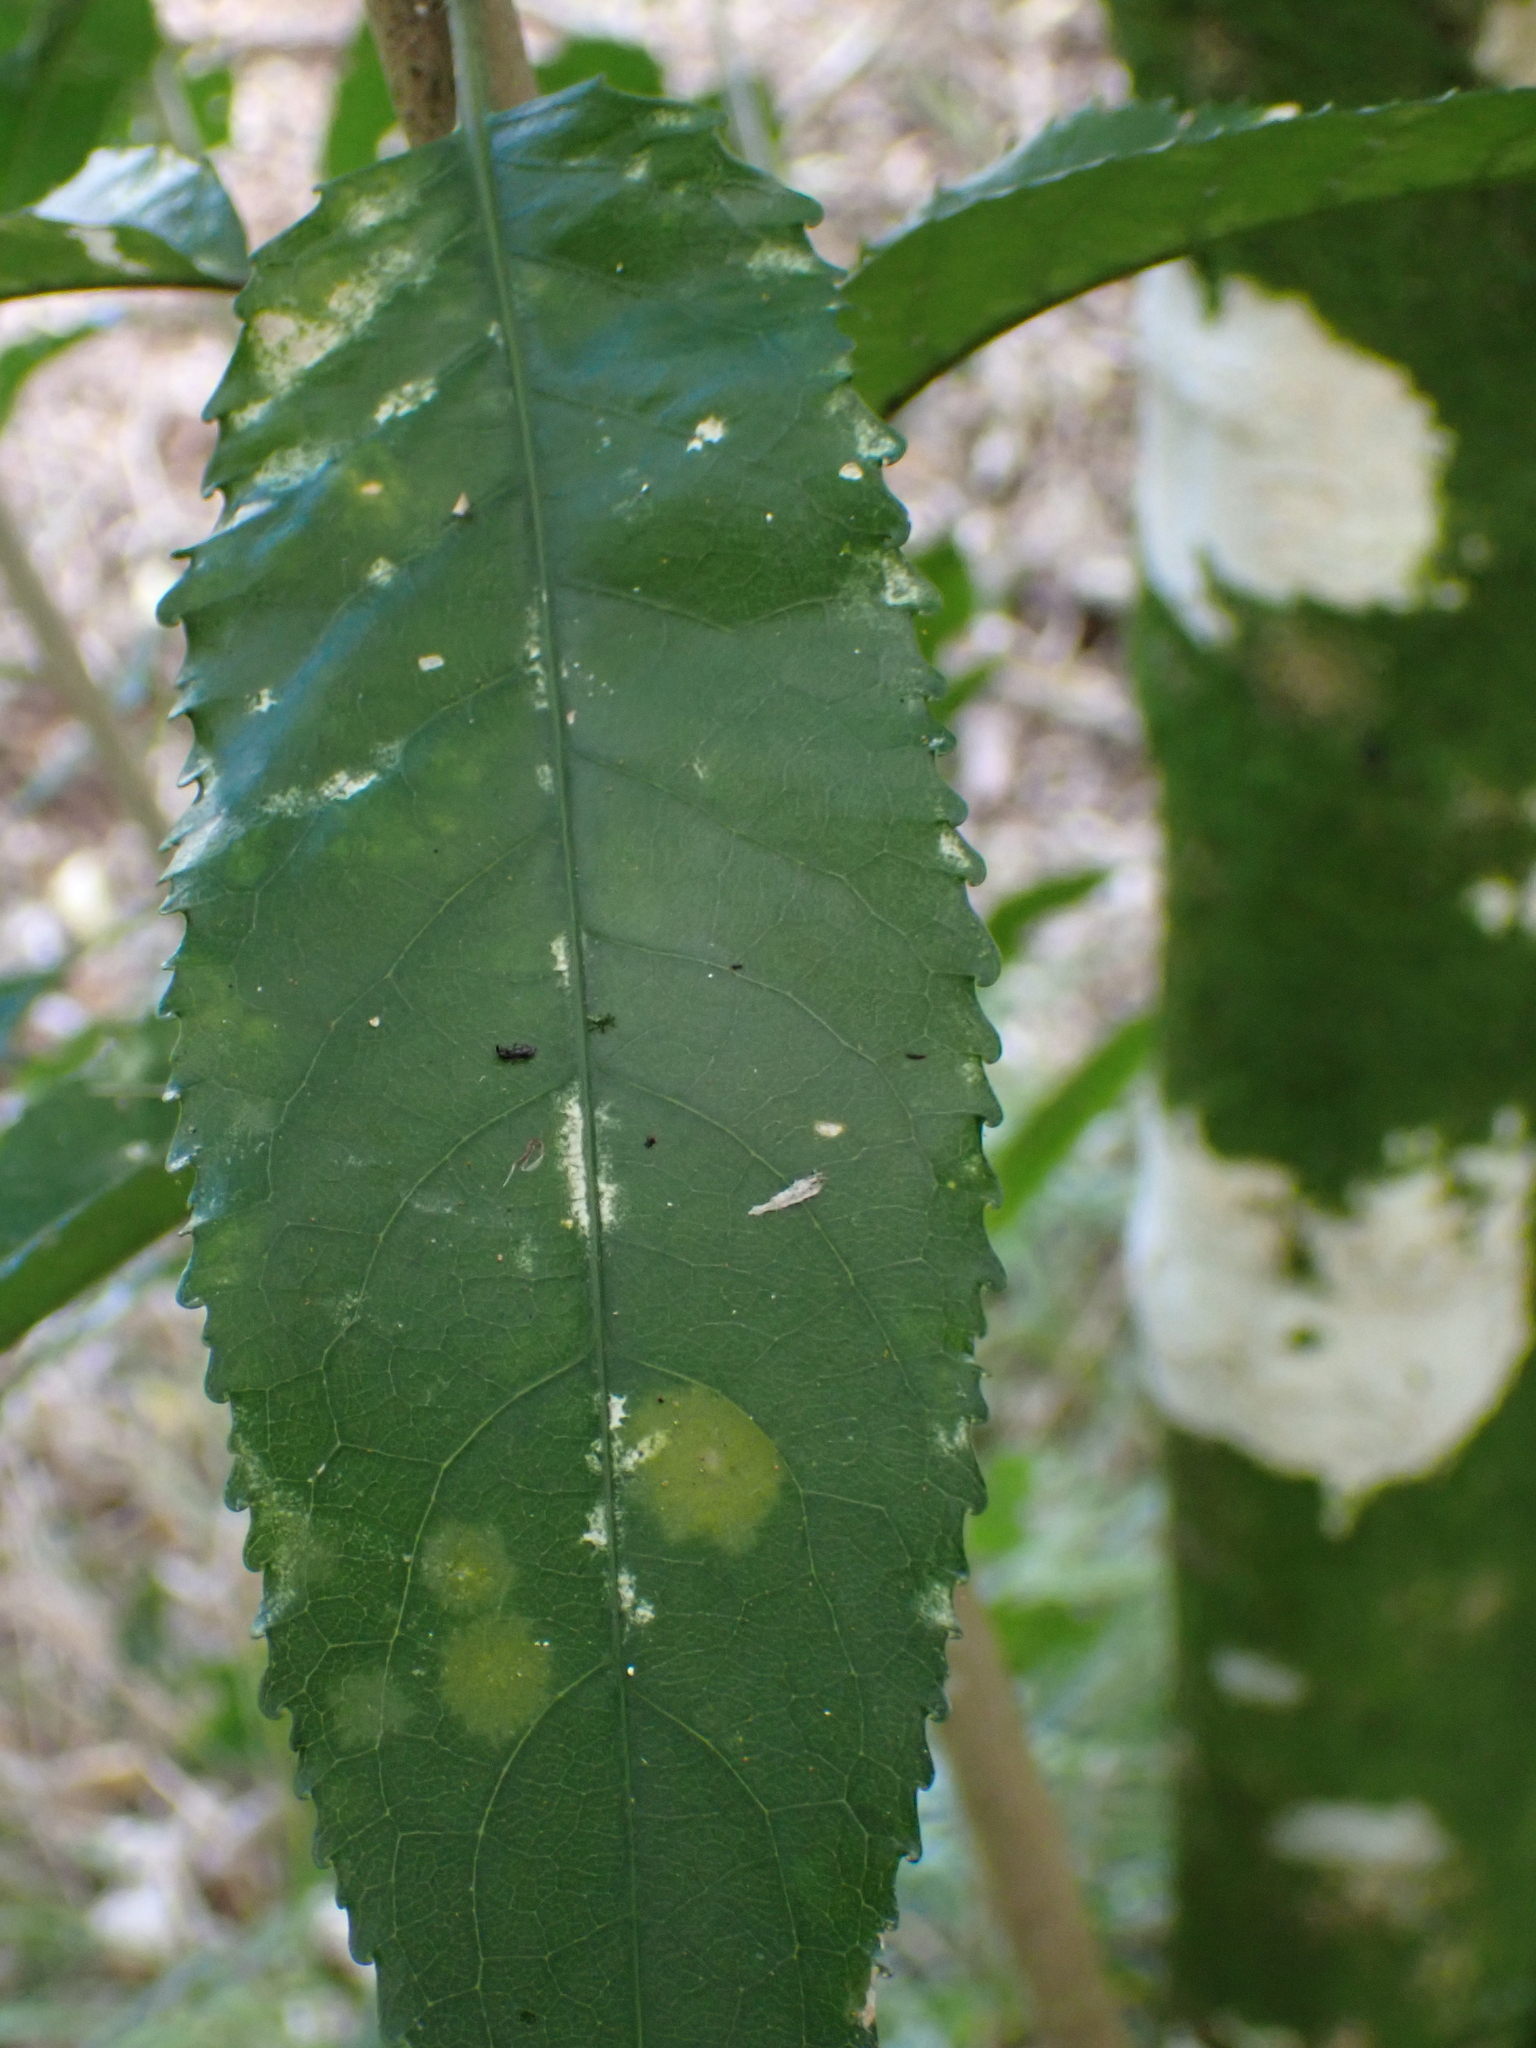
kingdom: Plantae
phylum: Tracheophyta
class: Magnoliopsida
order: Malpighiales
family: Violaceae
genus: Melicytus
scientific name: Melicytus ramiflorus
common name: Mahoe
